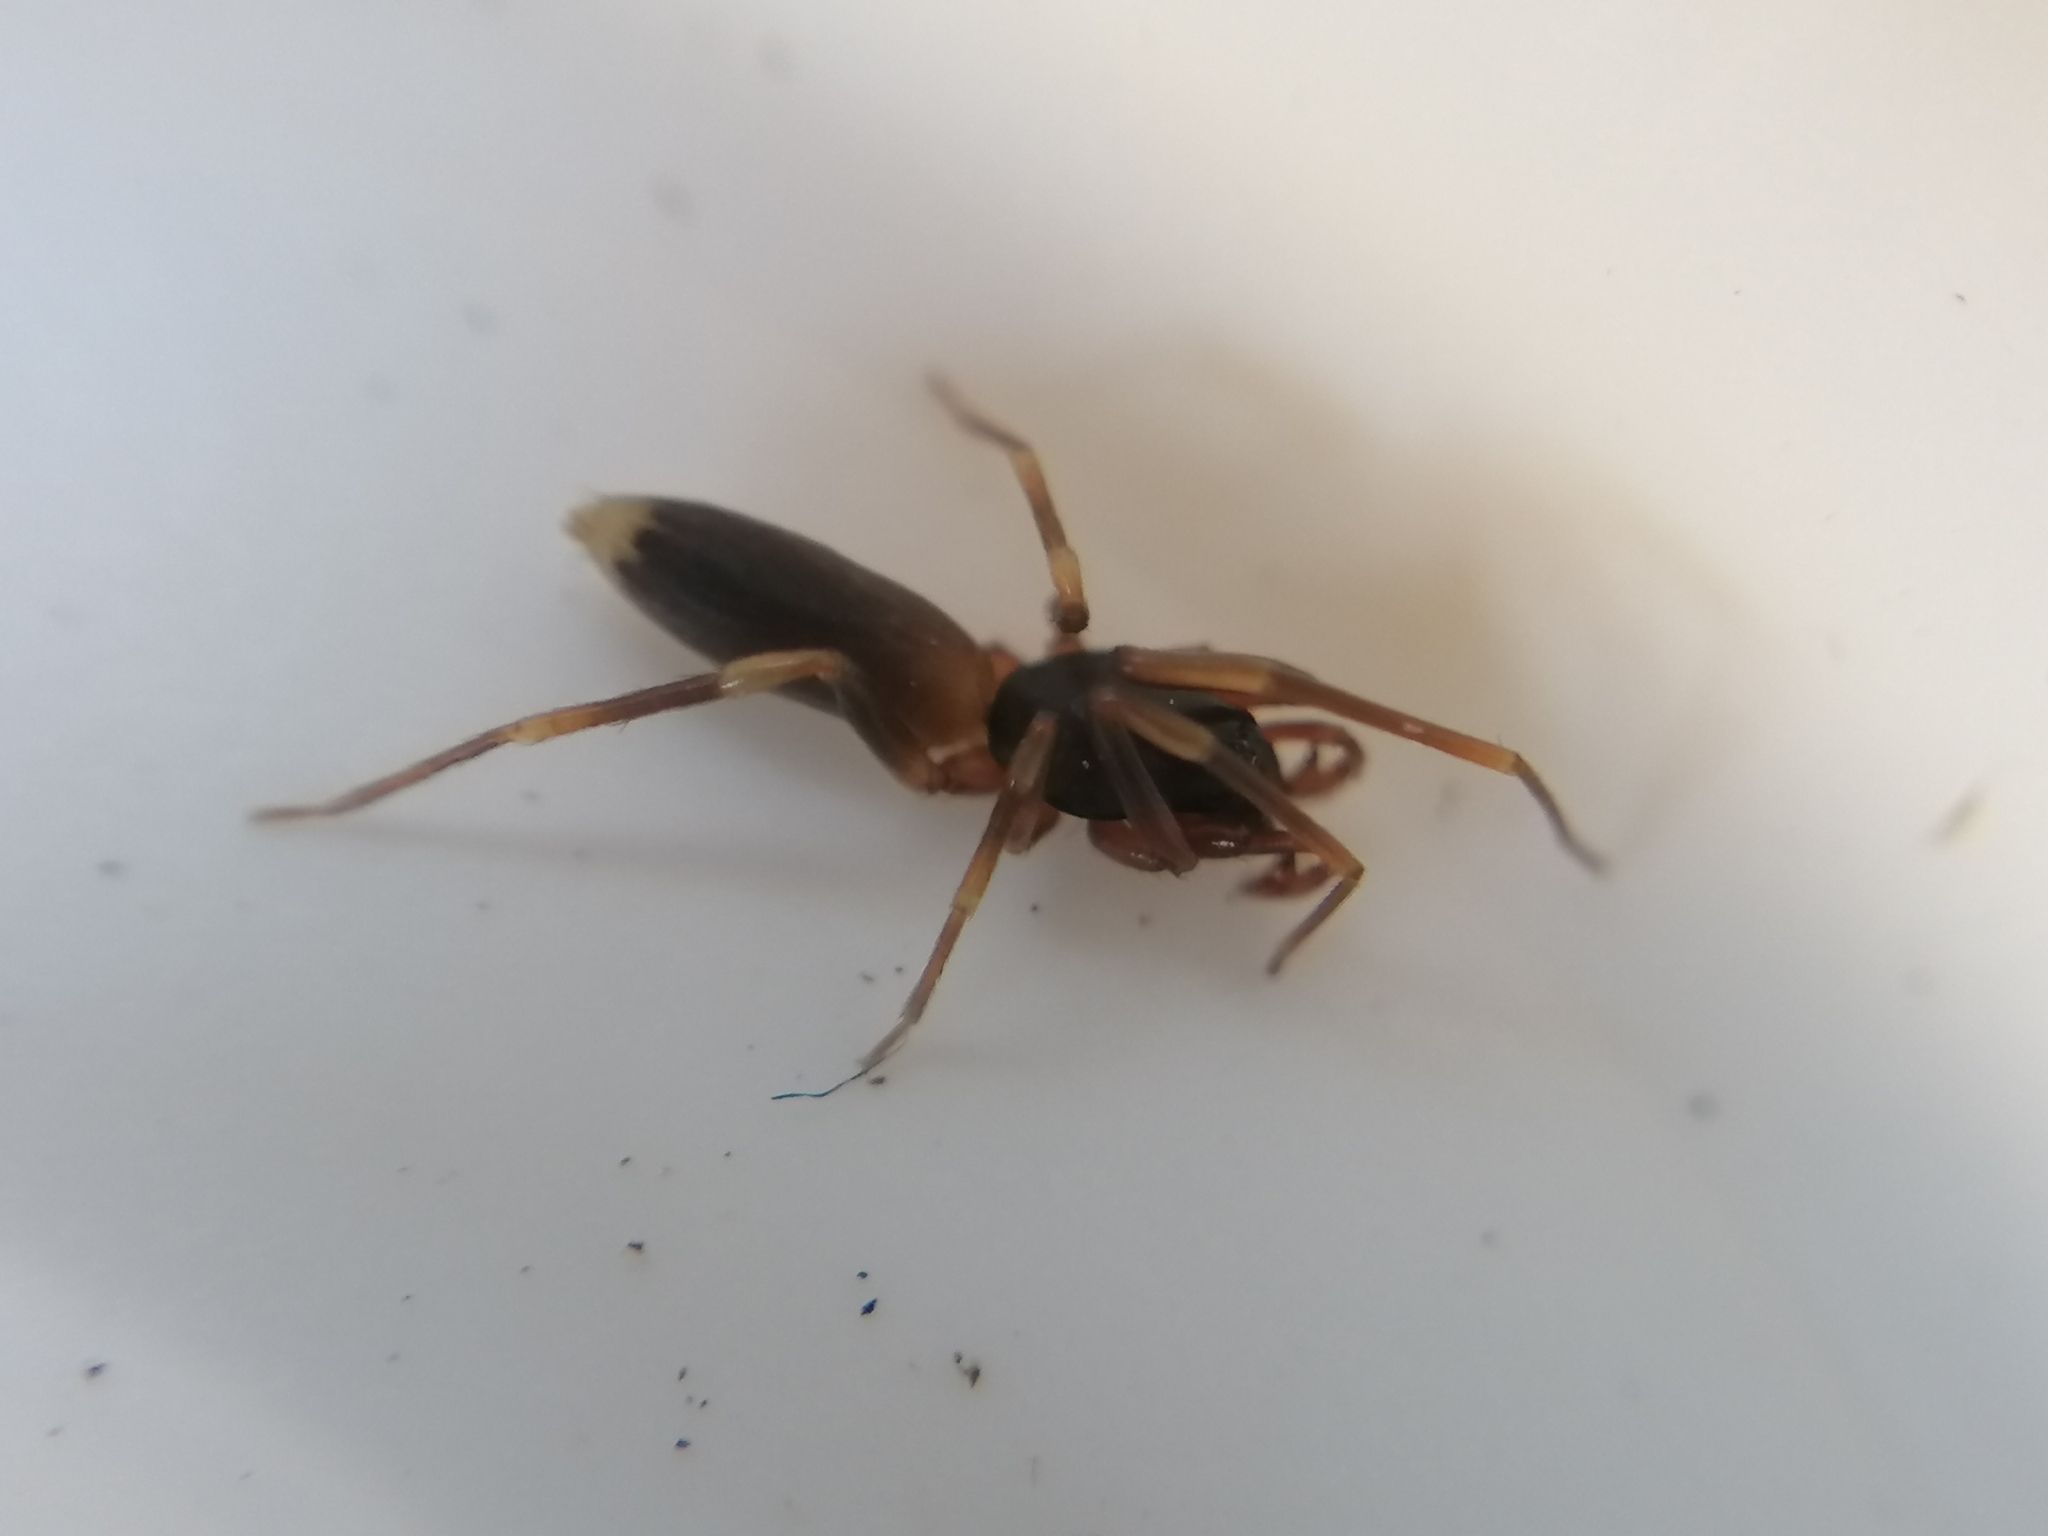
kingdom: Animalia
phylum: Arthropoda
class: Arachnida
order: Araneae
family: Dysderidae
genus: Harpactea
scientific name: Harpactea hombergi
